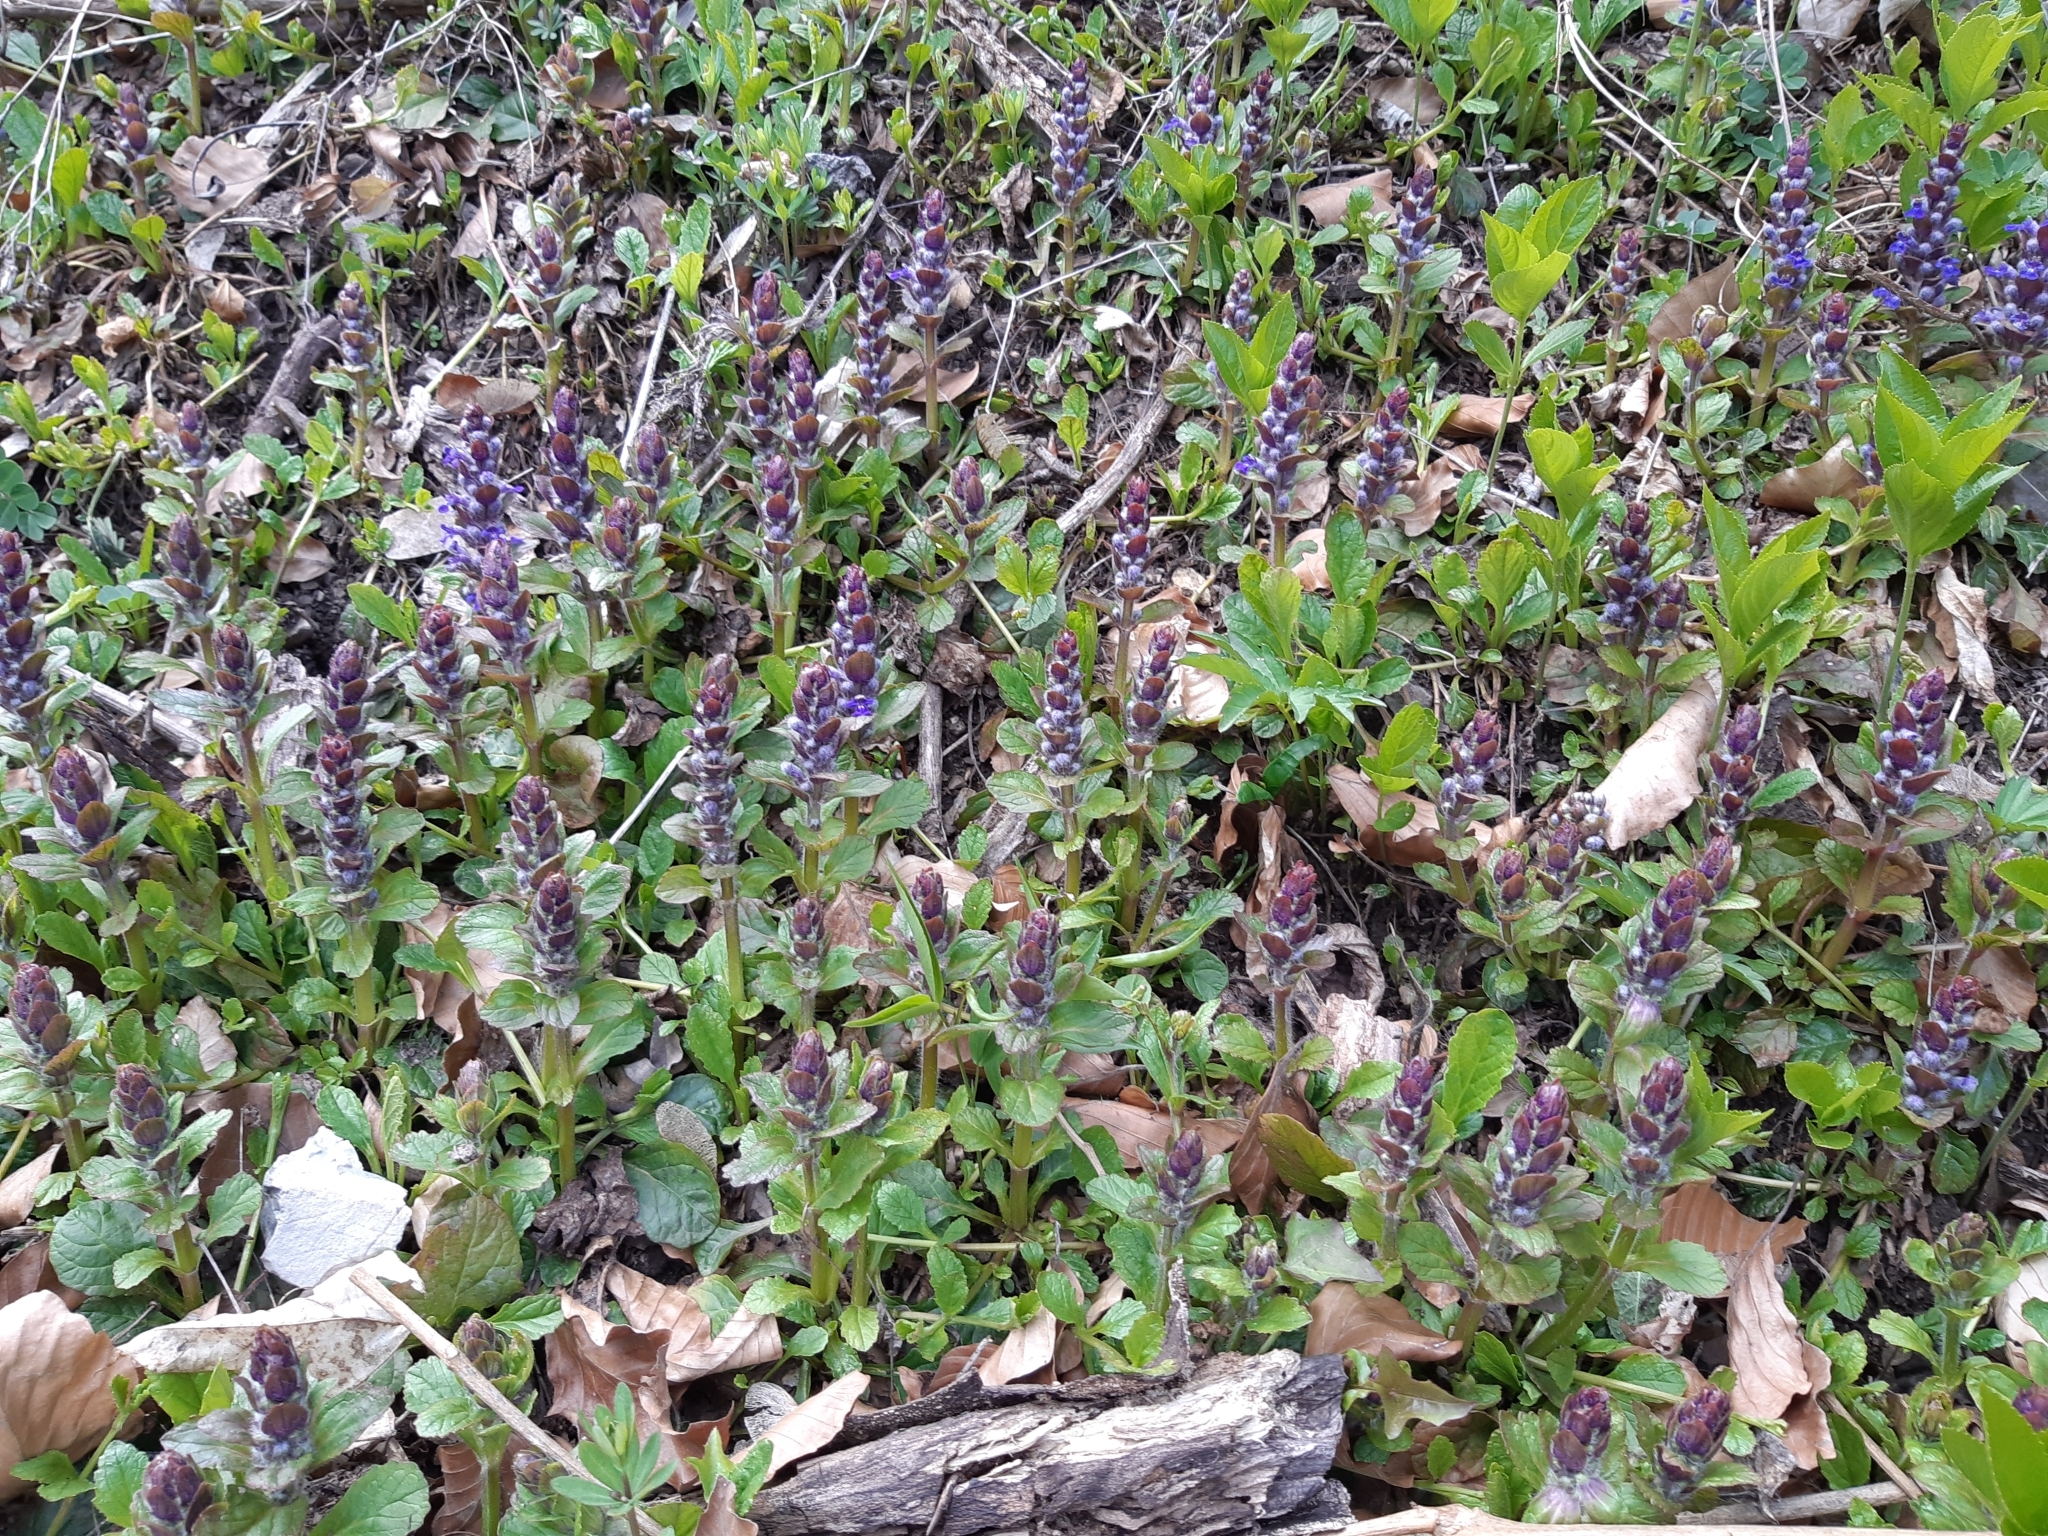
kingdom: Plantae
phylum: Tracheophyta
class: Magnoliopsida
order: Lamiales
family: Lamiaceae
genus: Ajuga
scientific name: Ajuga reptans
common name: Bugle
